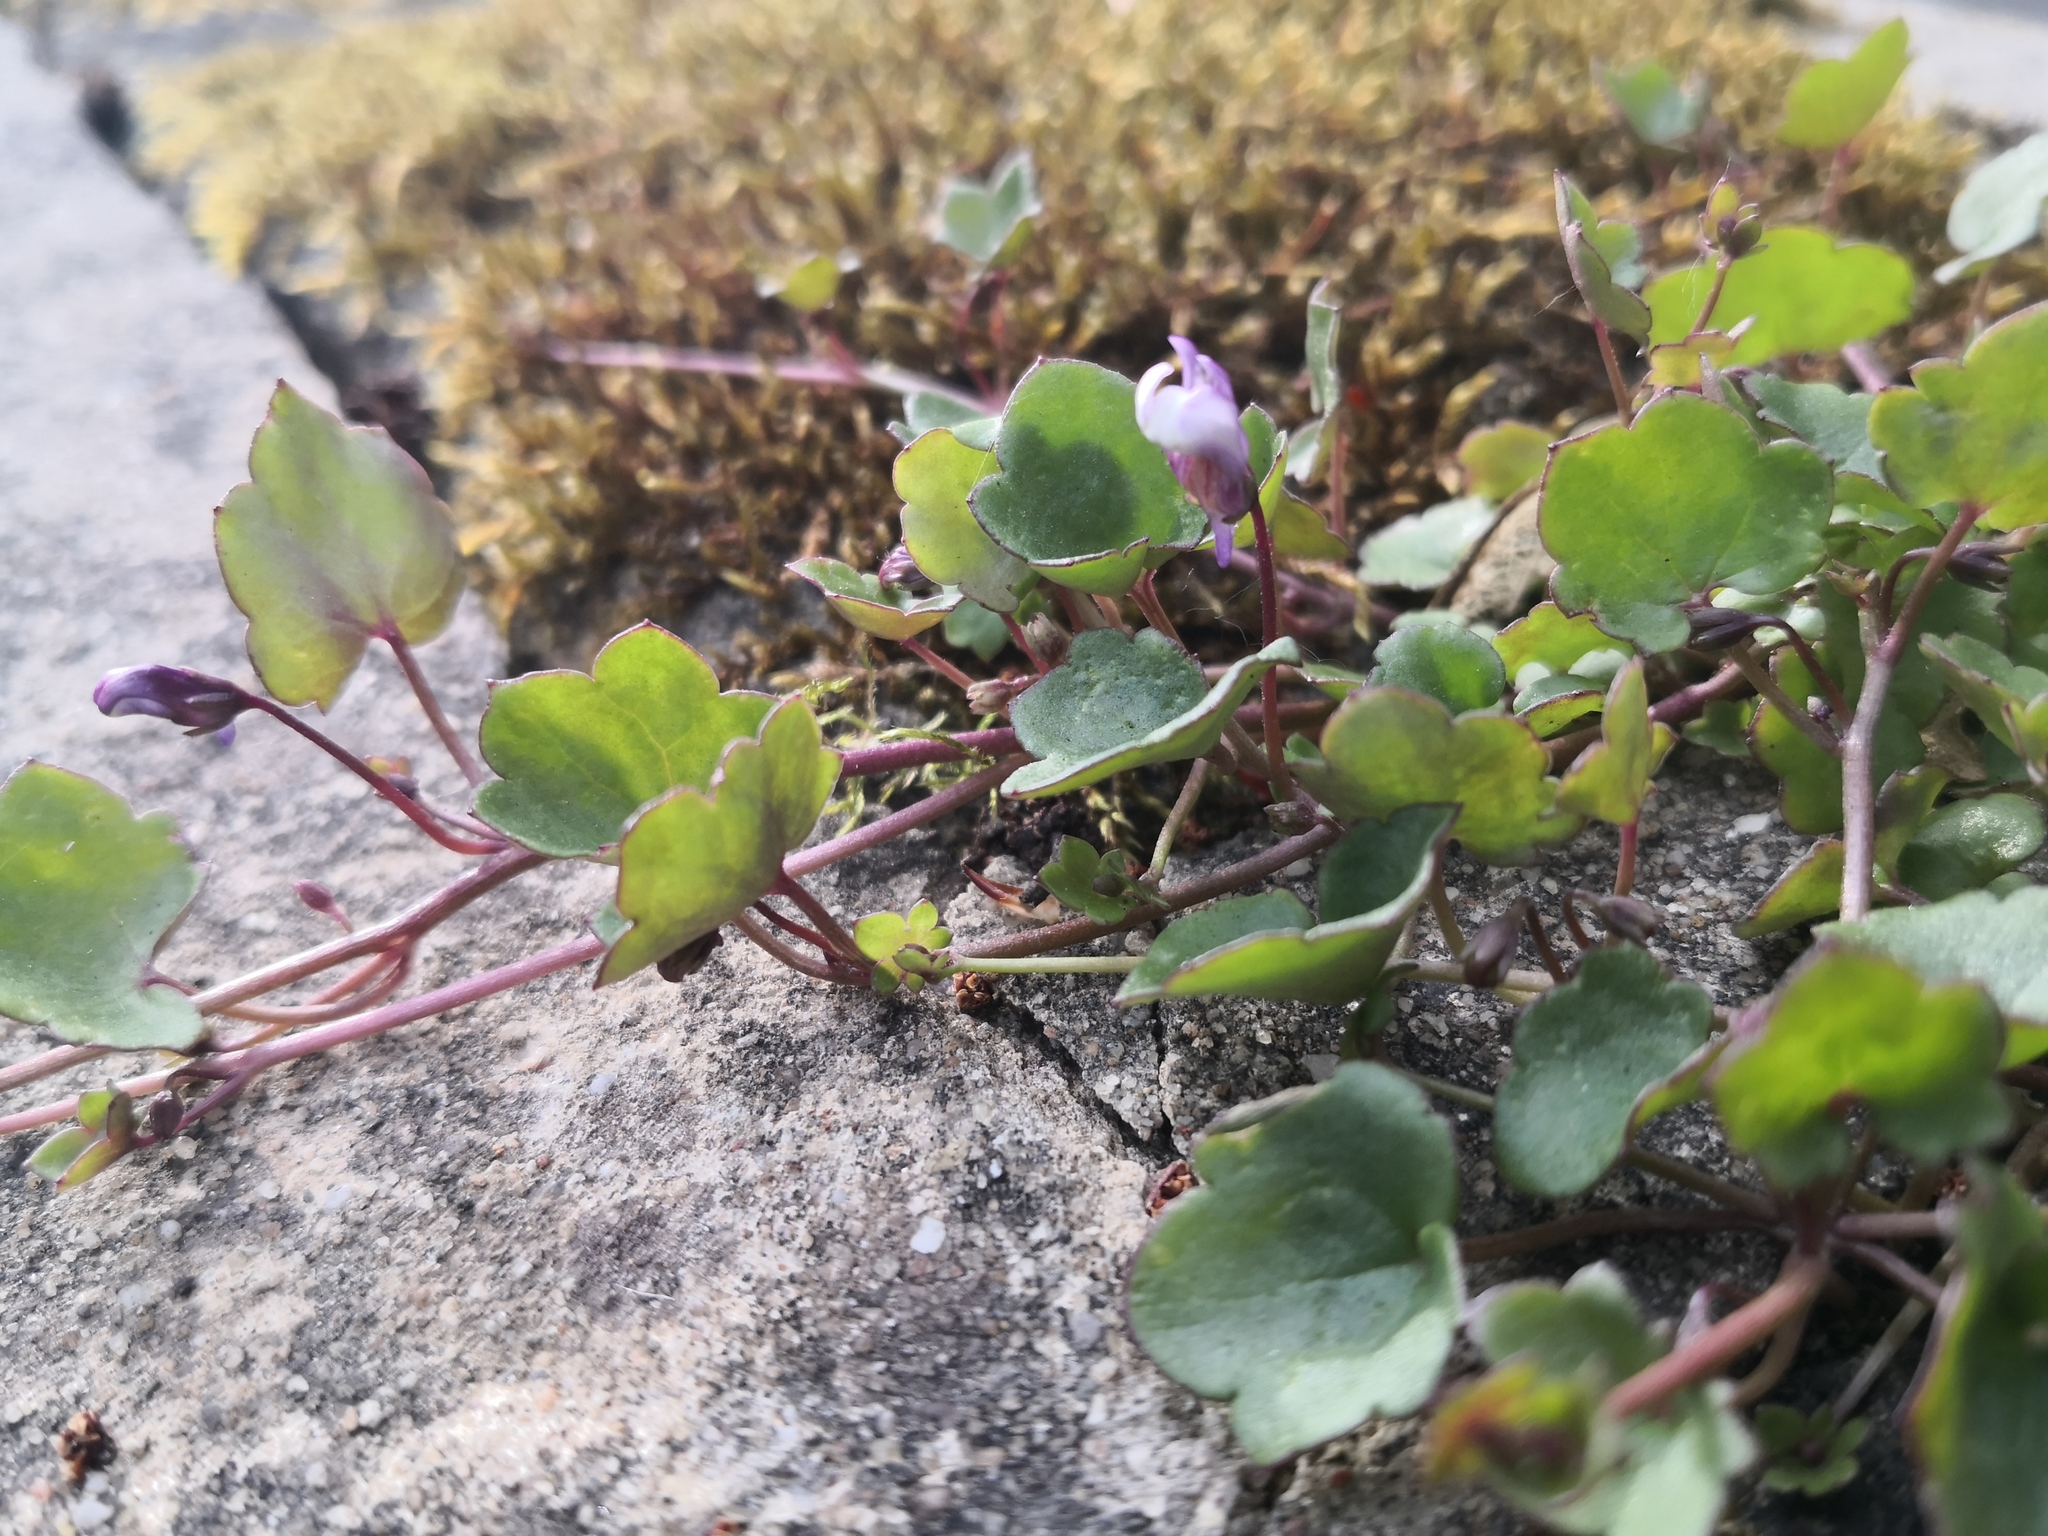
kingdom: Plantae
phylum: Tracheophyta
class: Magnoliopsida
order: Lamiales
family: Plantaginaceae
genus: Cymbalaria
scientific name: Cymbalaria muralis
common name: Ivy-leaved toadflax
